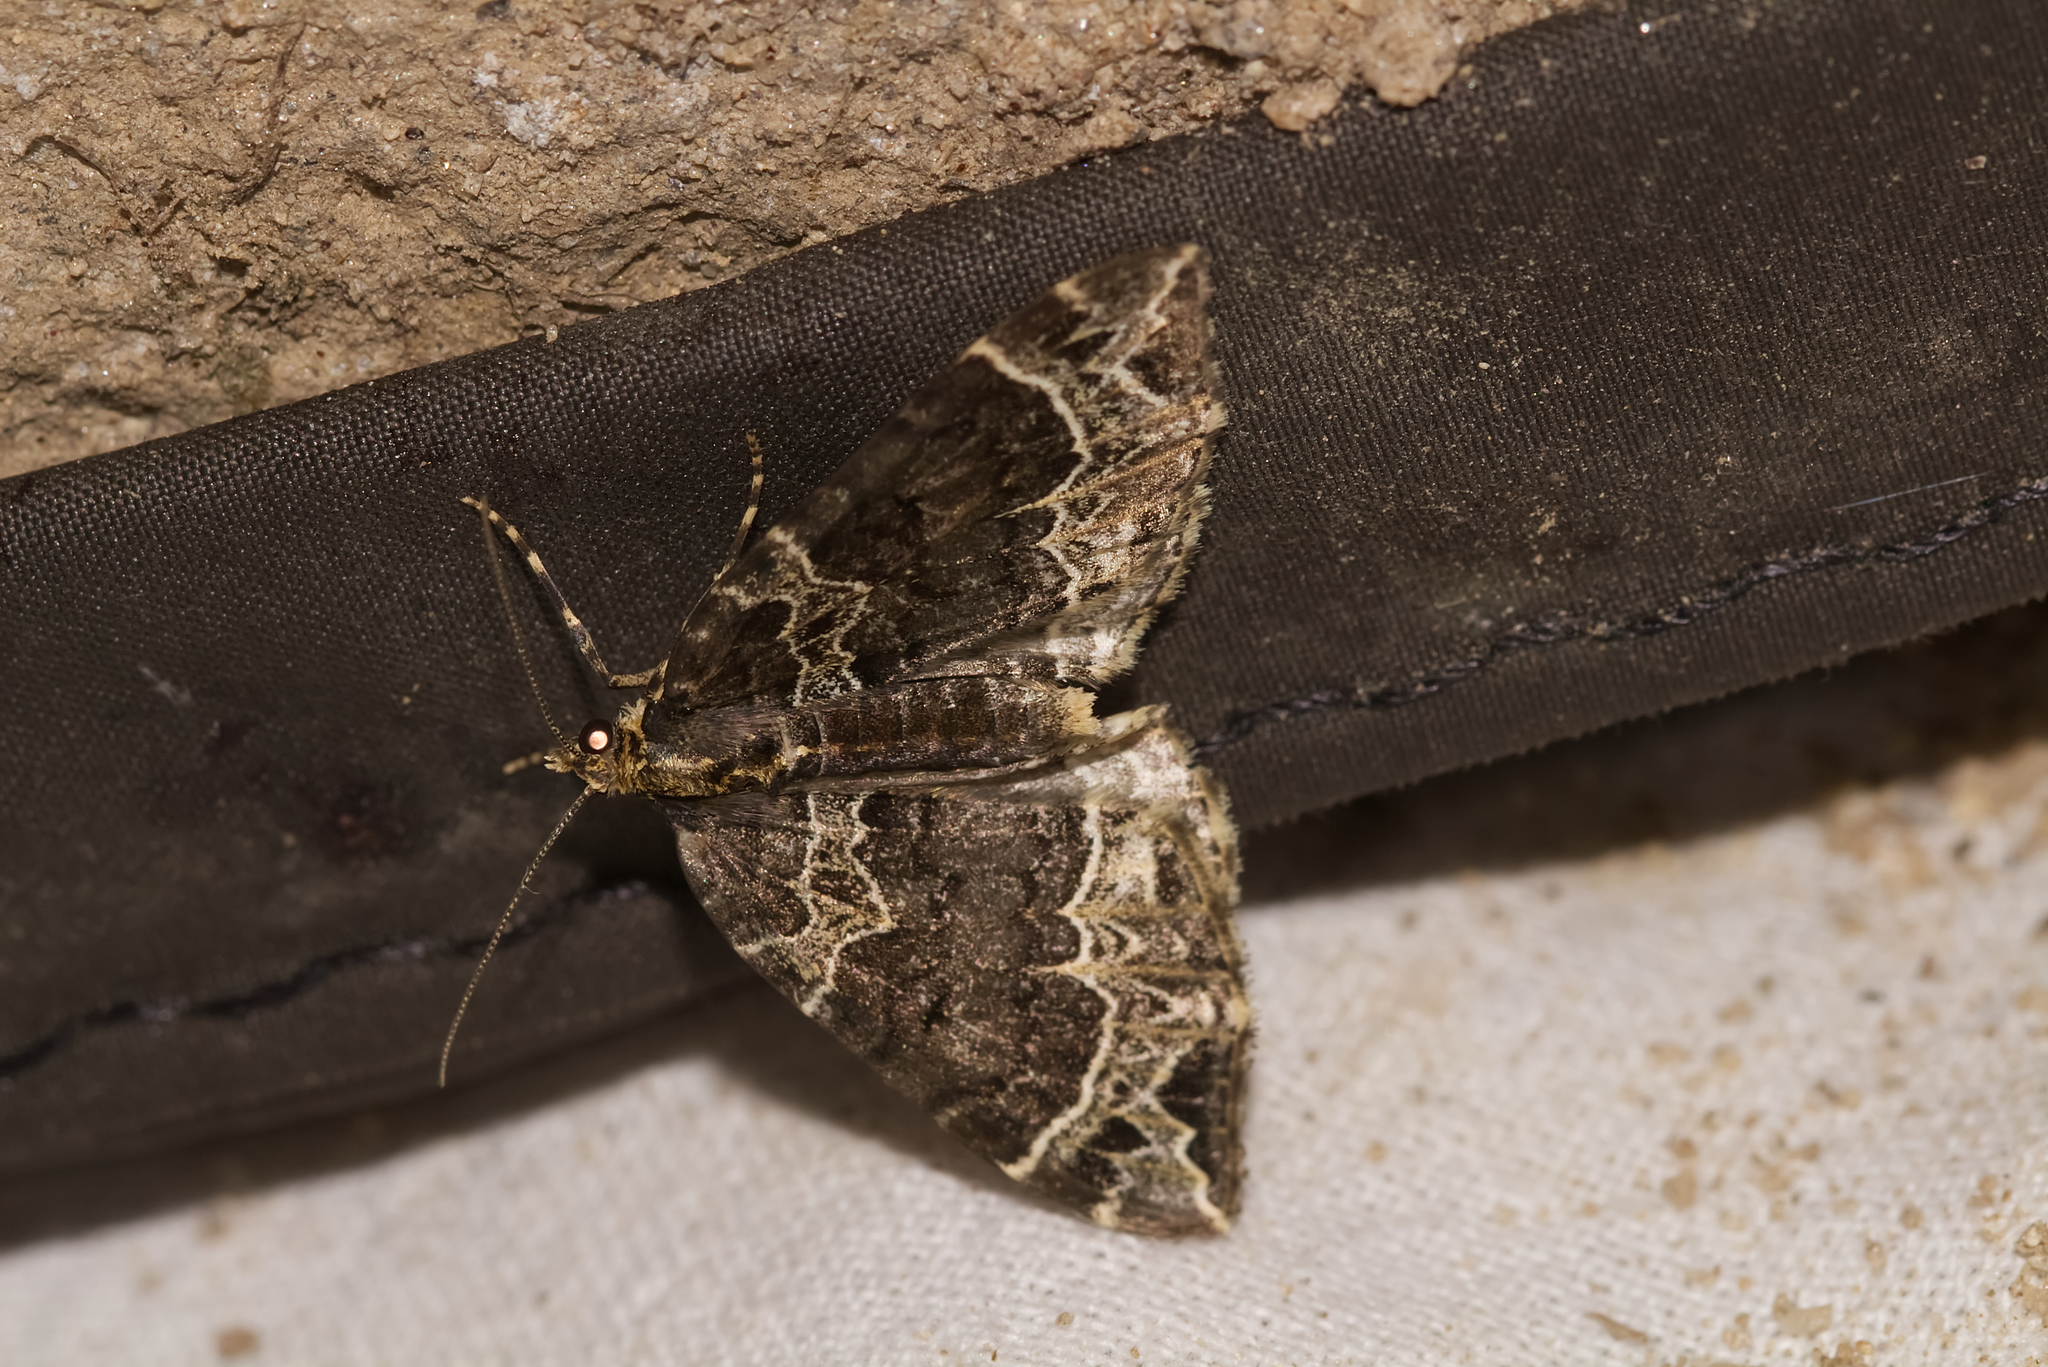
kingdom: Animalia
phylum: Arthropoda
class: Insecta
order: Lepidoptera
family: Geometridae
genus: Ecliptopera
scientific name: Ecliptopera silaceata
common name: Small phoenix
